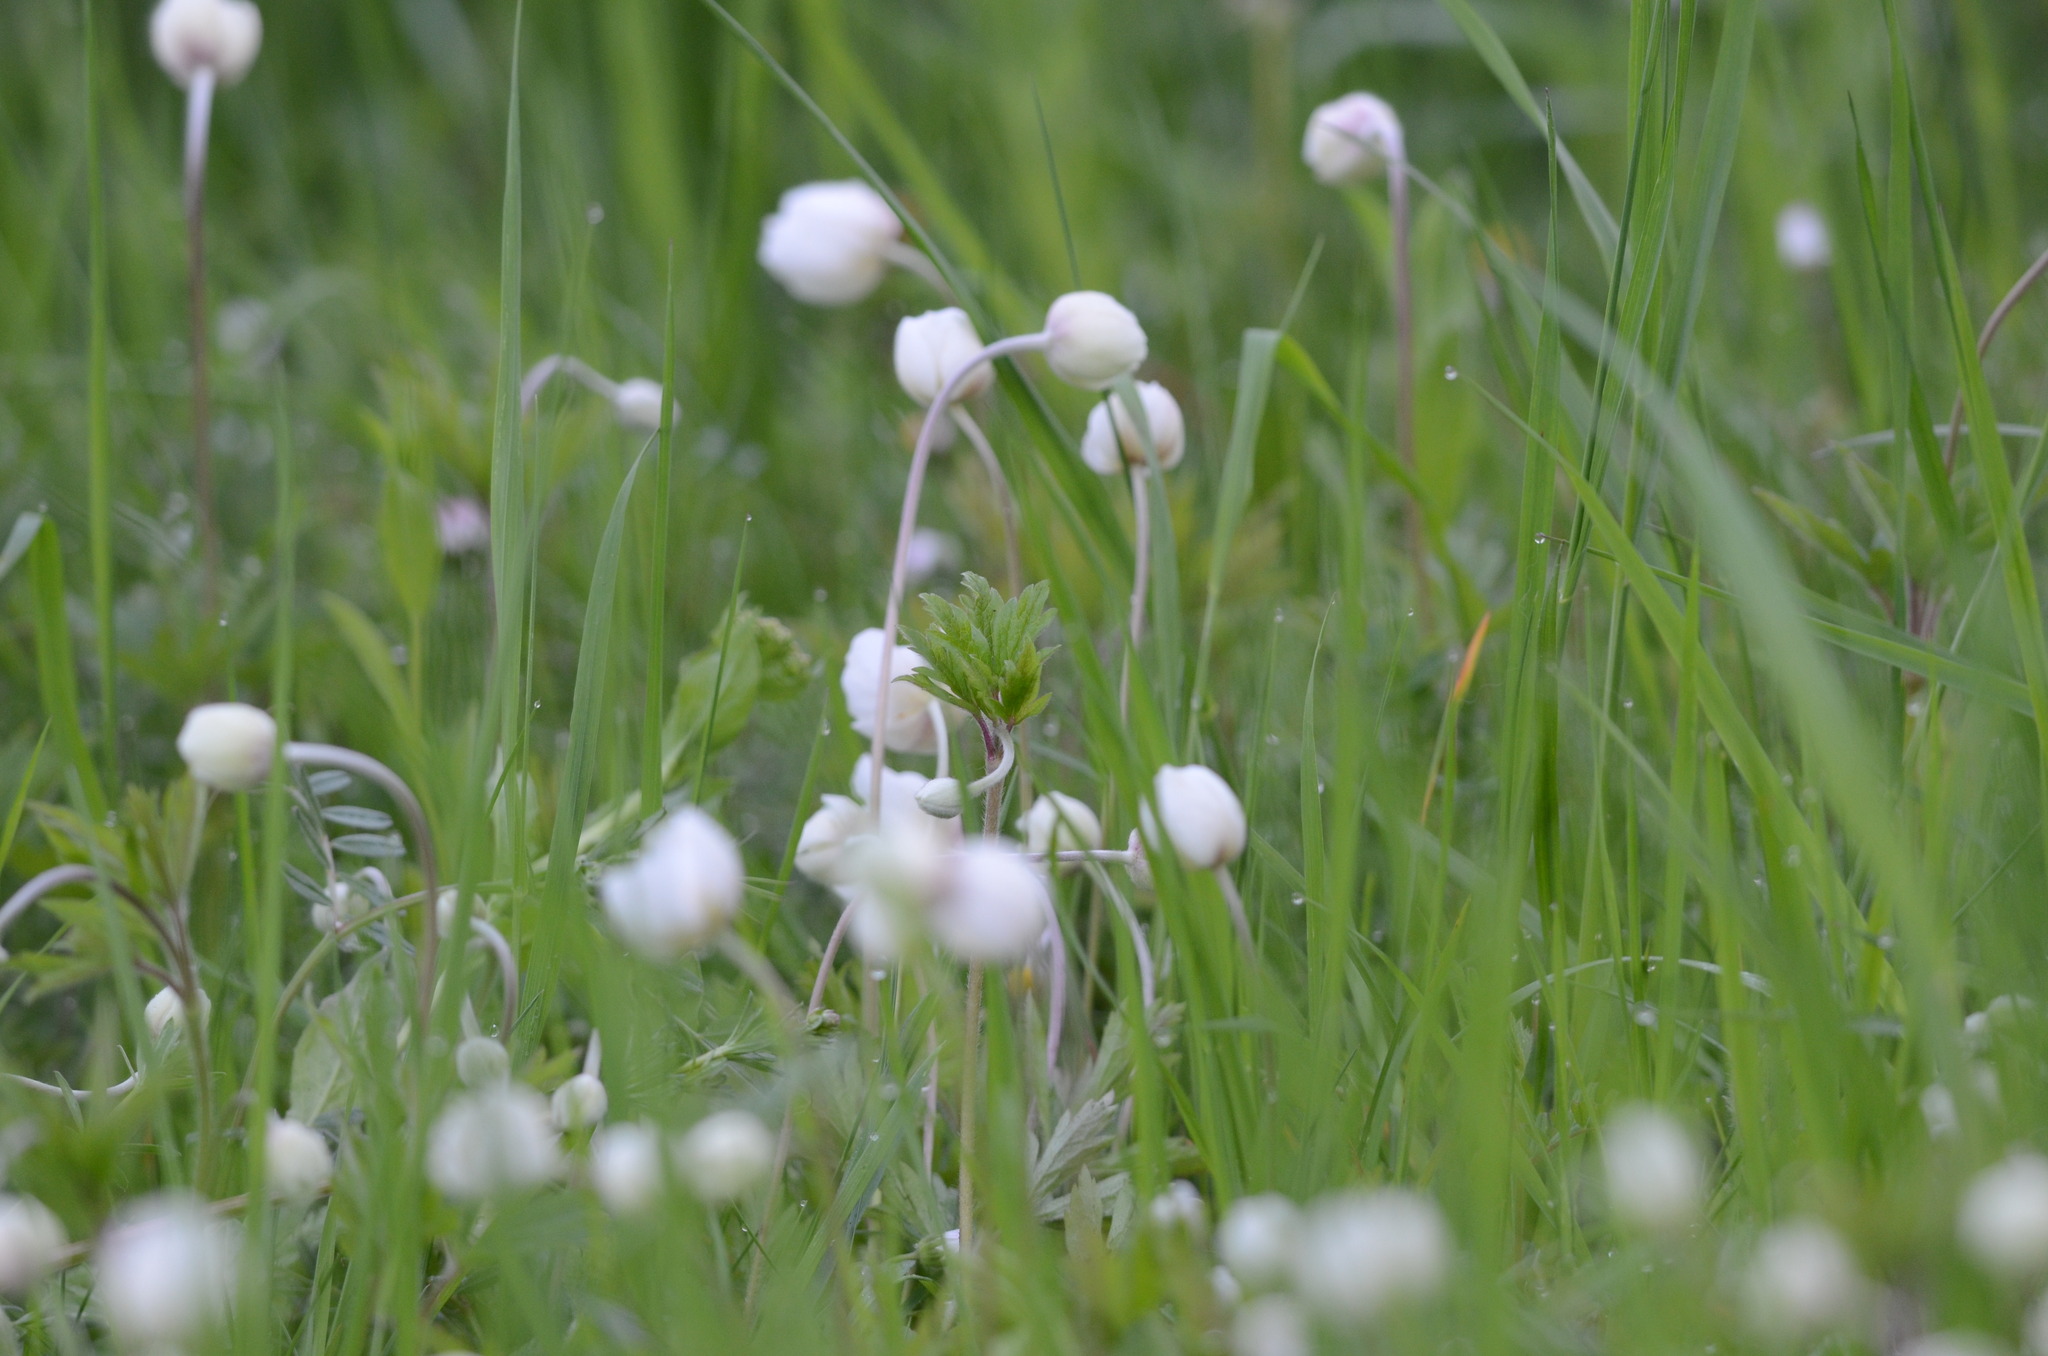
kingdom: Plantae
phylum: Tracheophyta
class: Magnoliopsida
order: Ranunculales
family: Ranunculaceae
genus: Anemone
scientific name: Anemone sylvestris
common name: Snowdrop anemone
